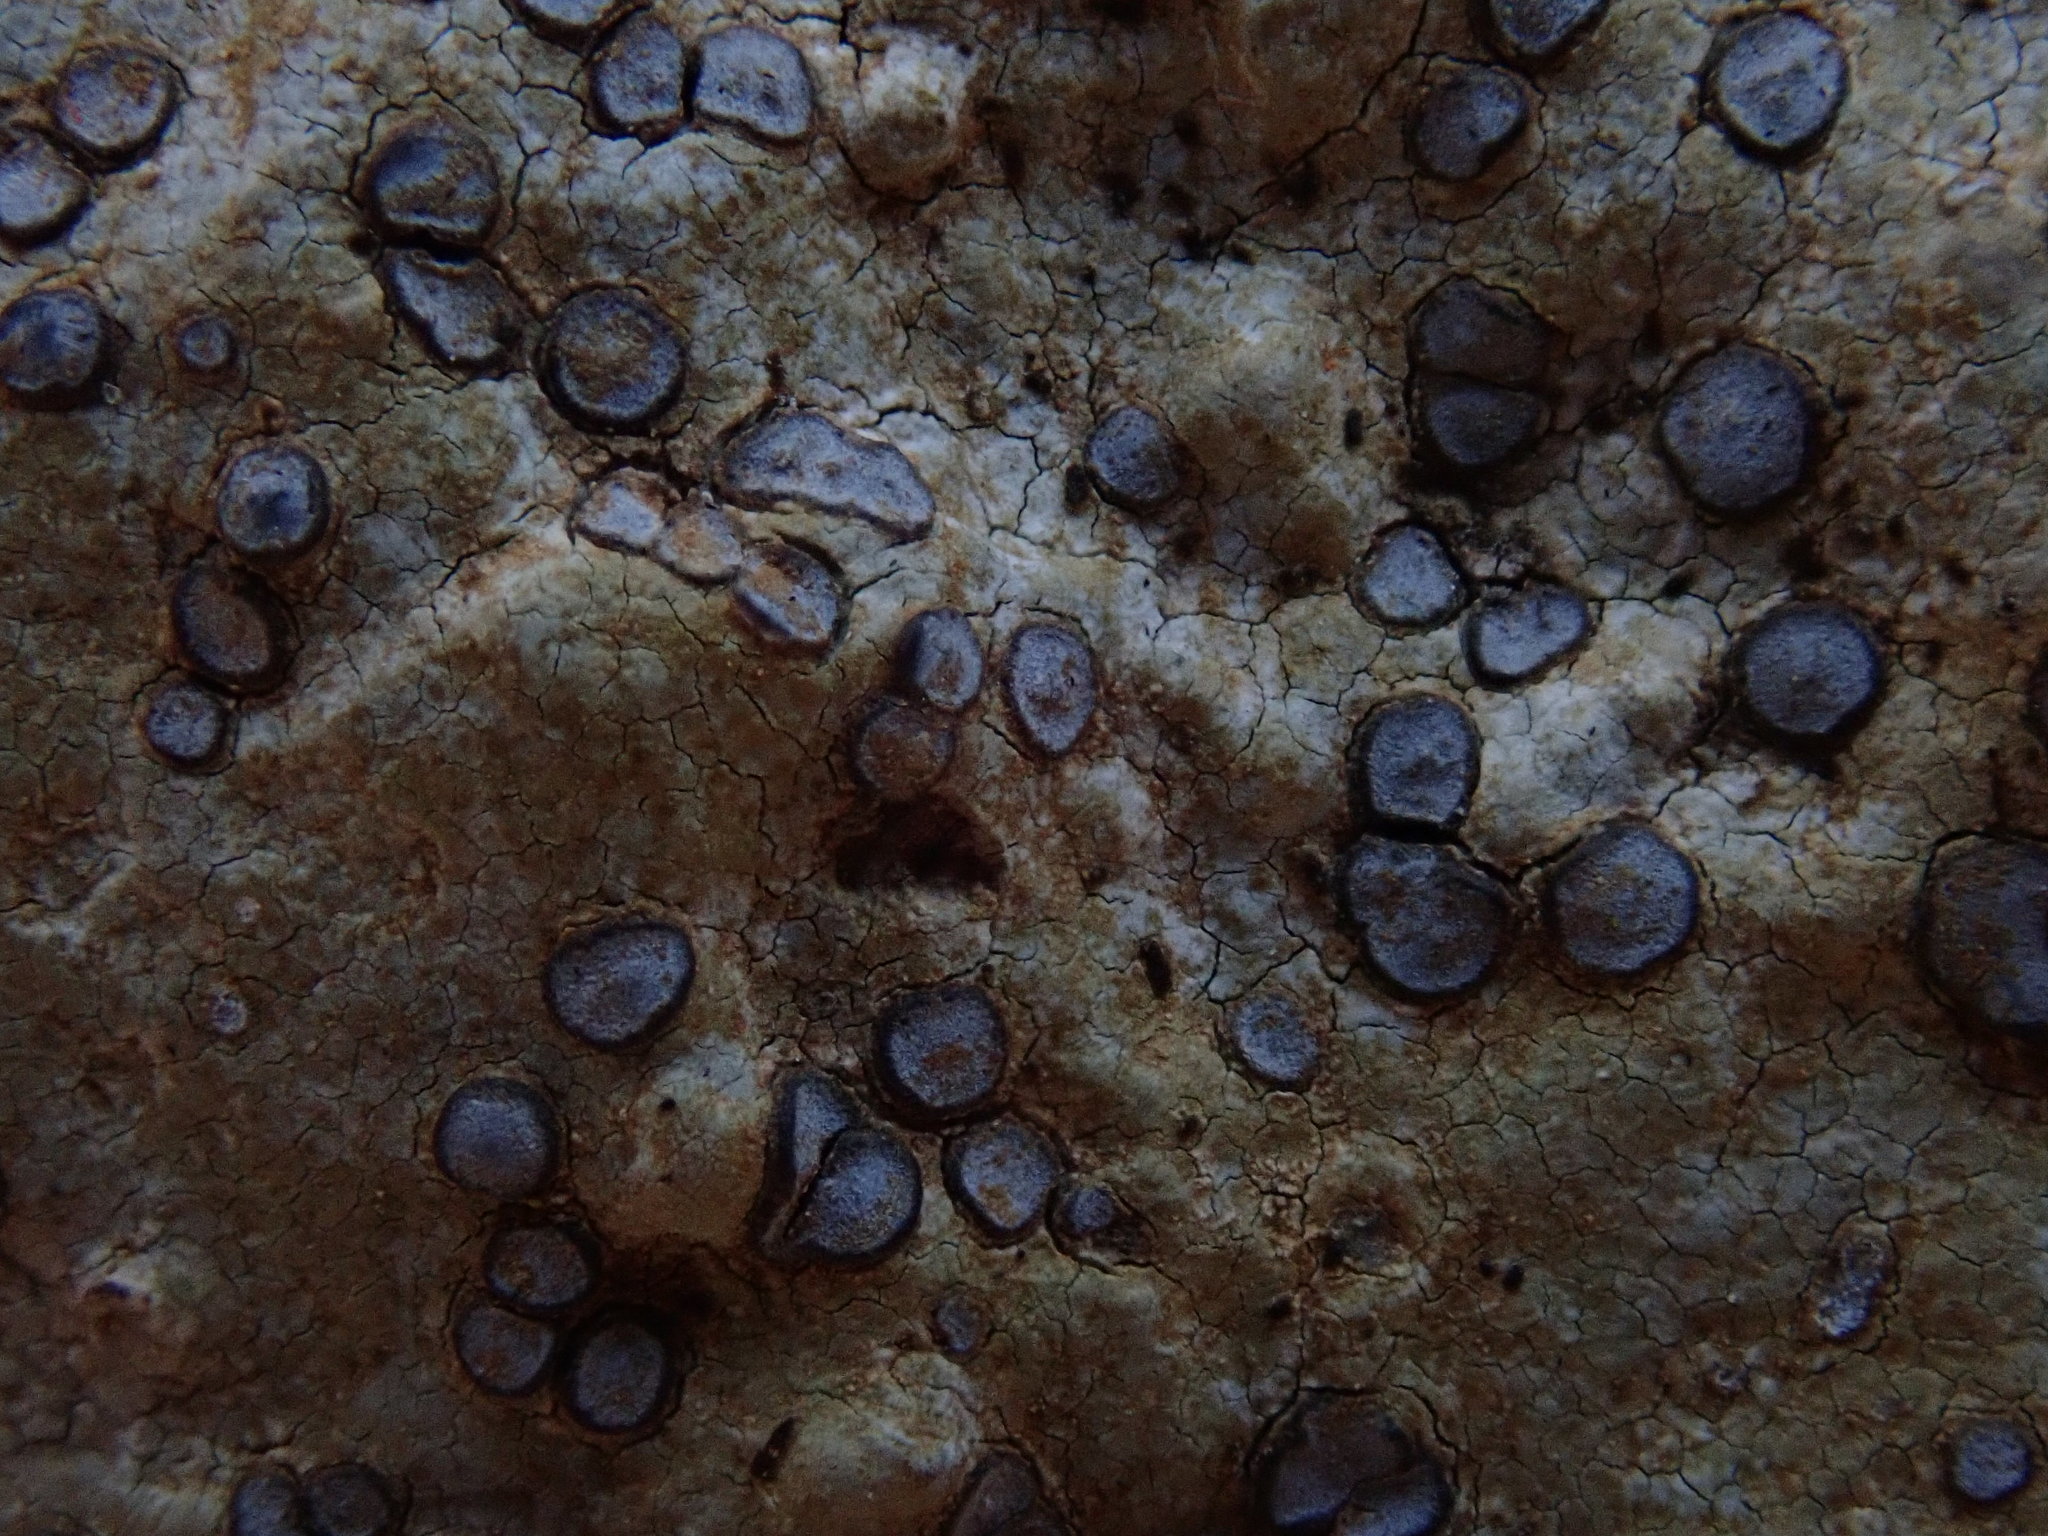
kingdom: Fungi
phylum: Ascomycota
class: Lecanoromycetes
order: Lecideales
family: Lecideaceae
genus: Porpidia
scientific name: Porpidia albocaerulescens
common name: Smokey-eyed boulder lichen
